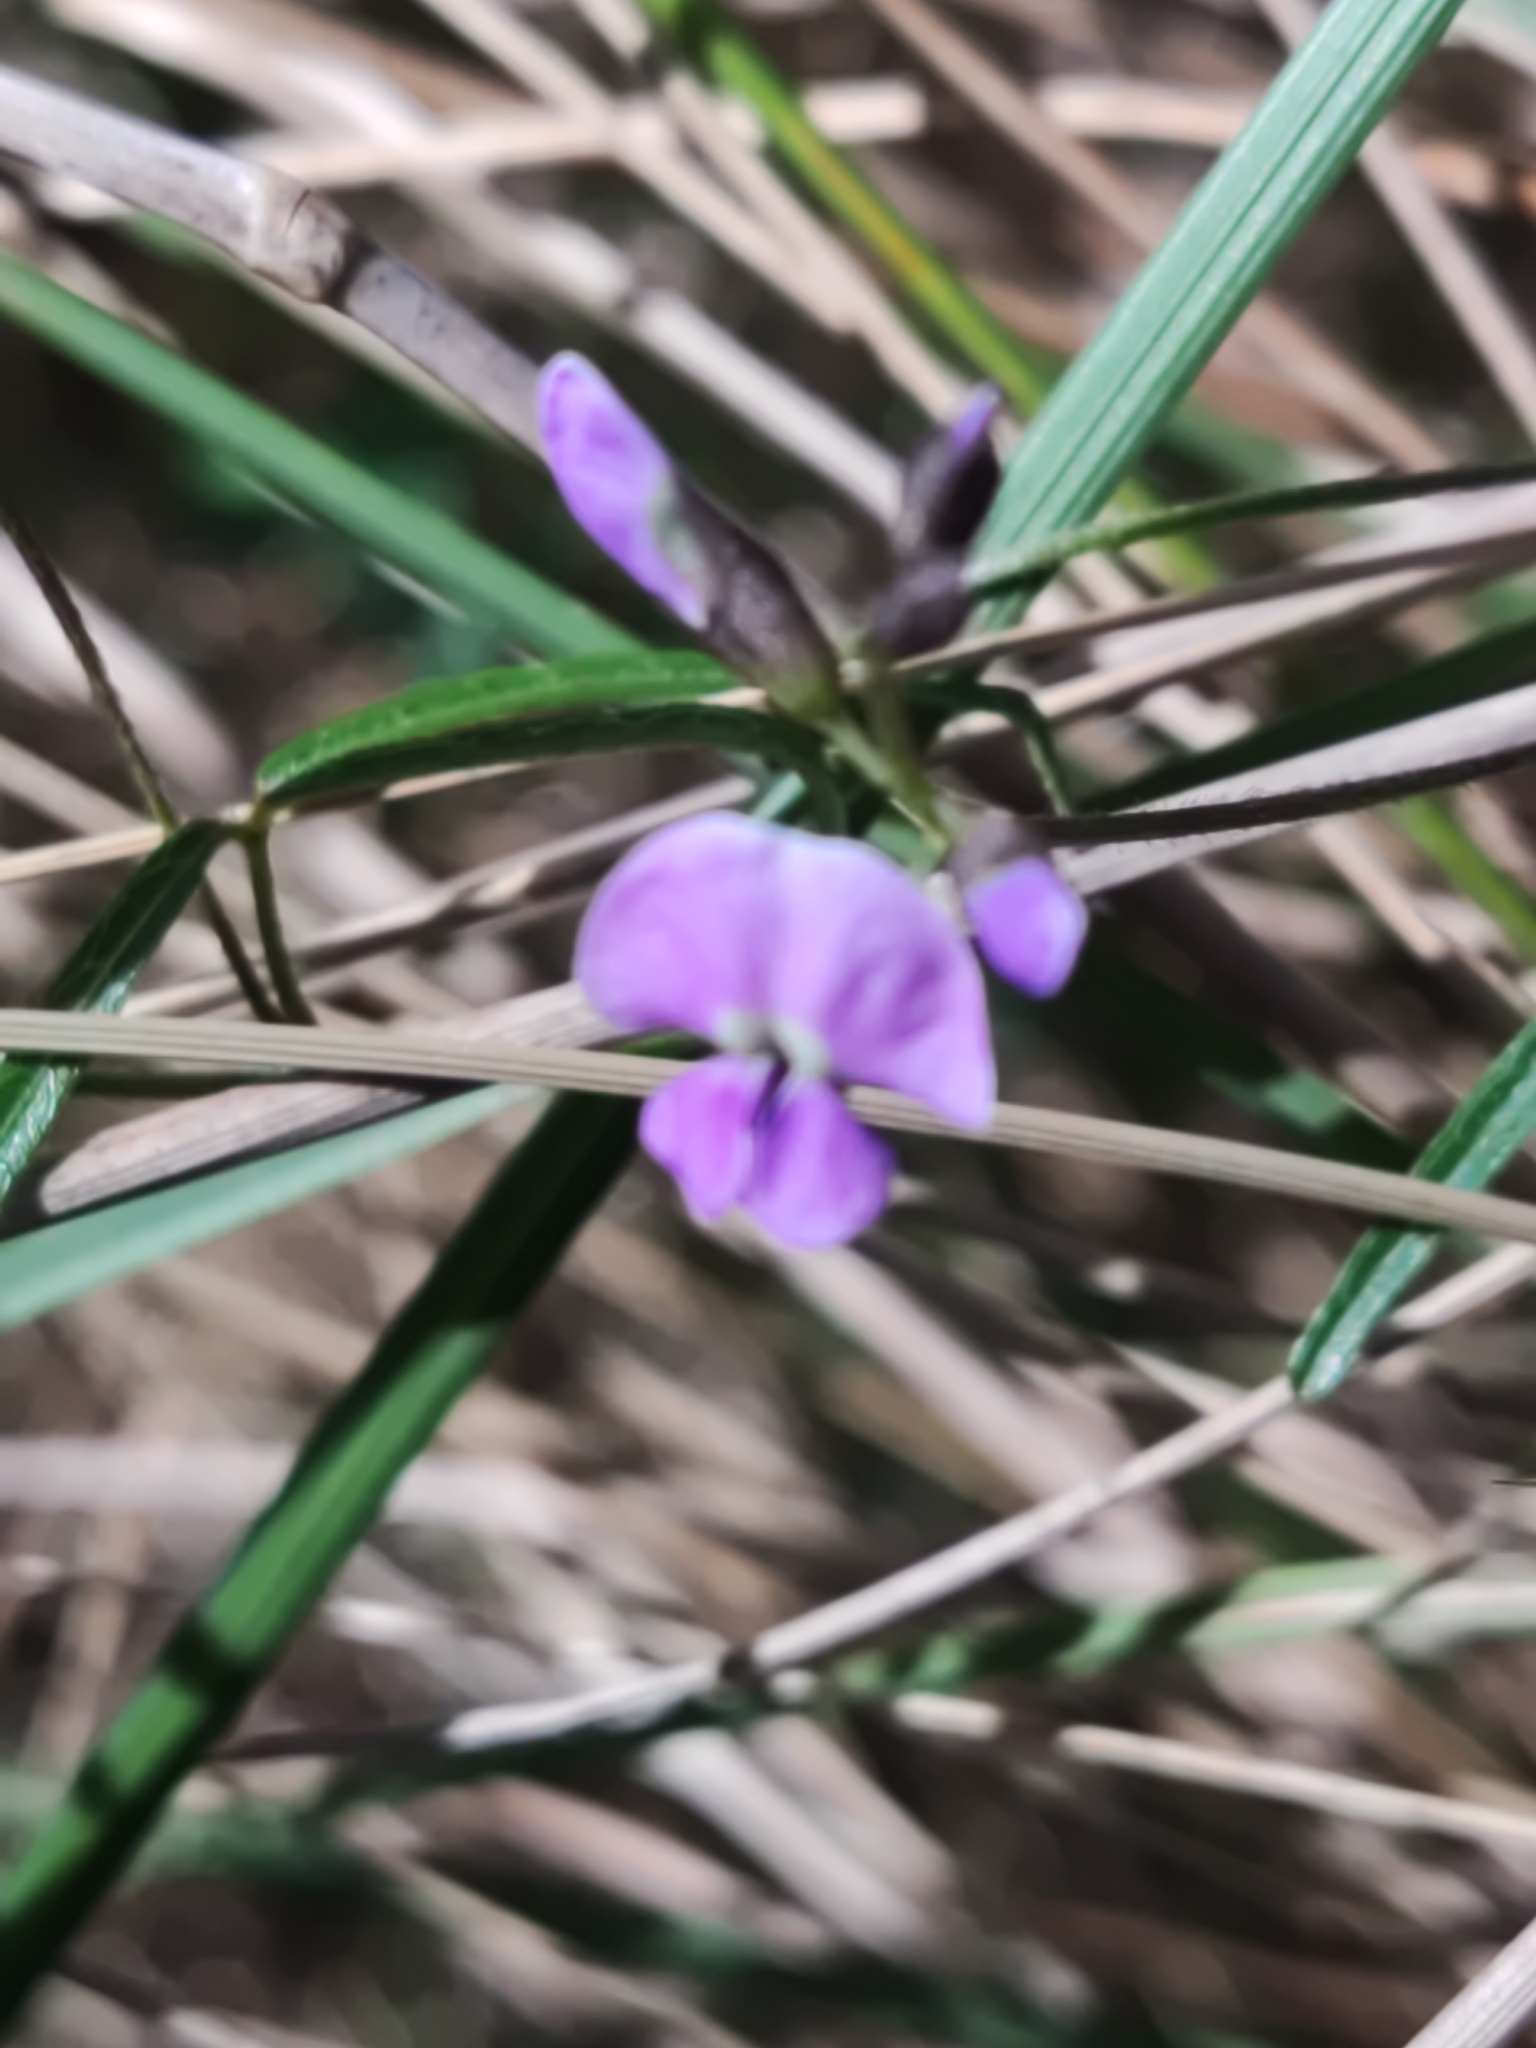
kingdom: Plantae
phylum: Tracheophyta
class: Magnoliopsida
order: Fabales
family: Fabaceae
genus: Glycine
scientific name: Glycine clandestina
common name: Twining glycine
